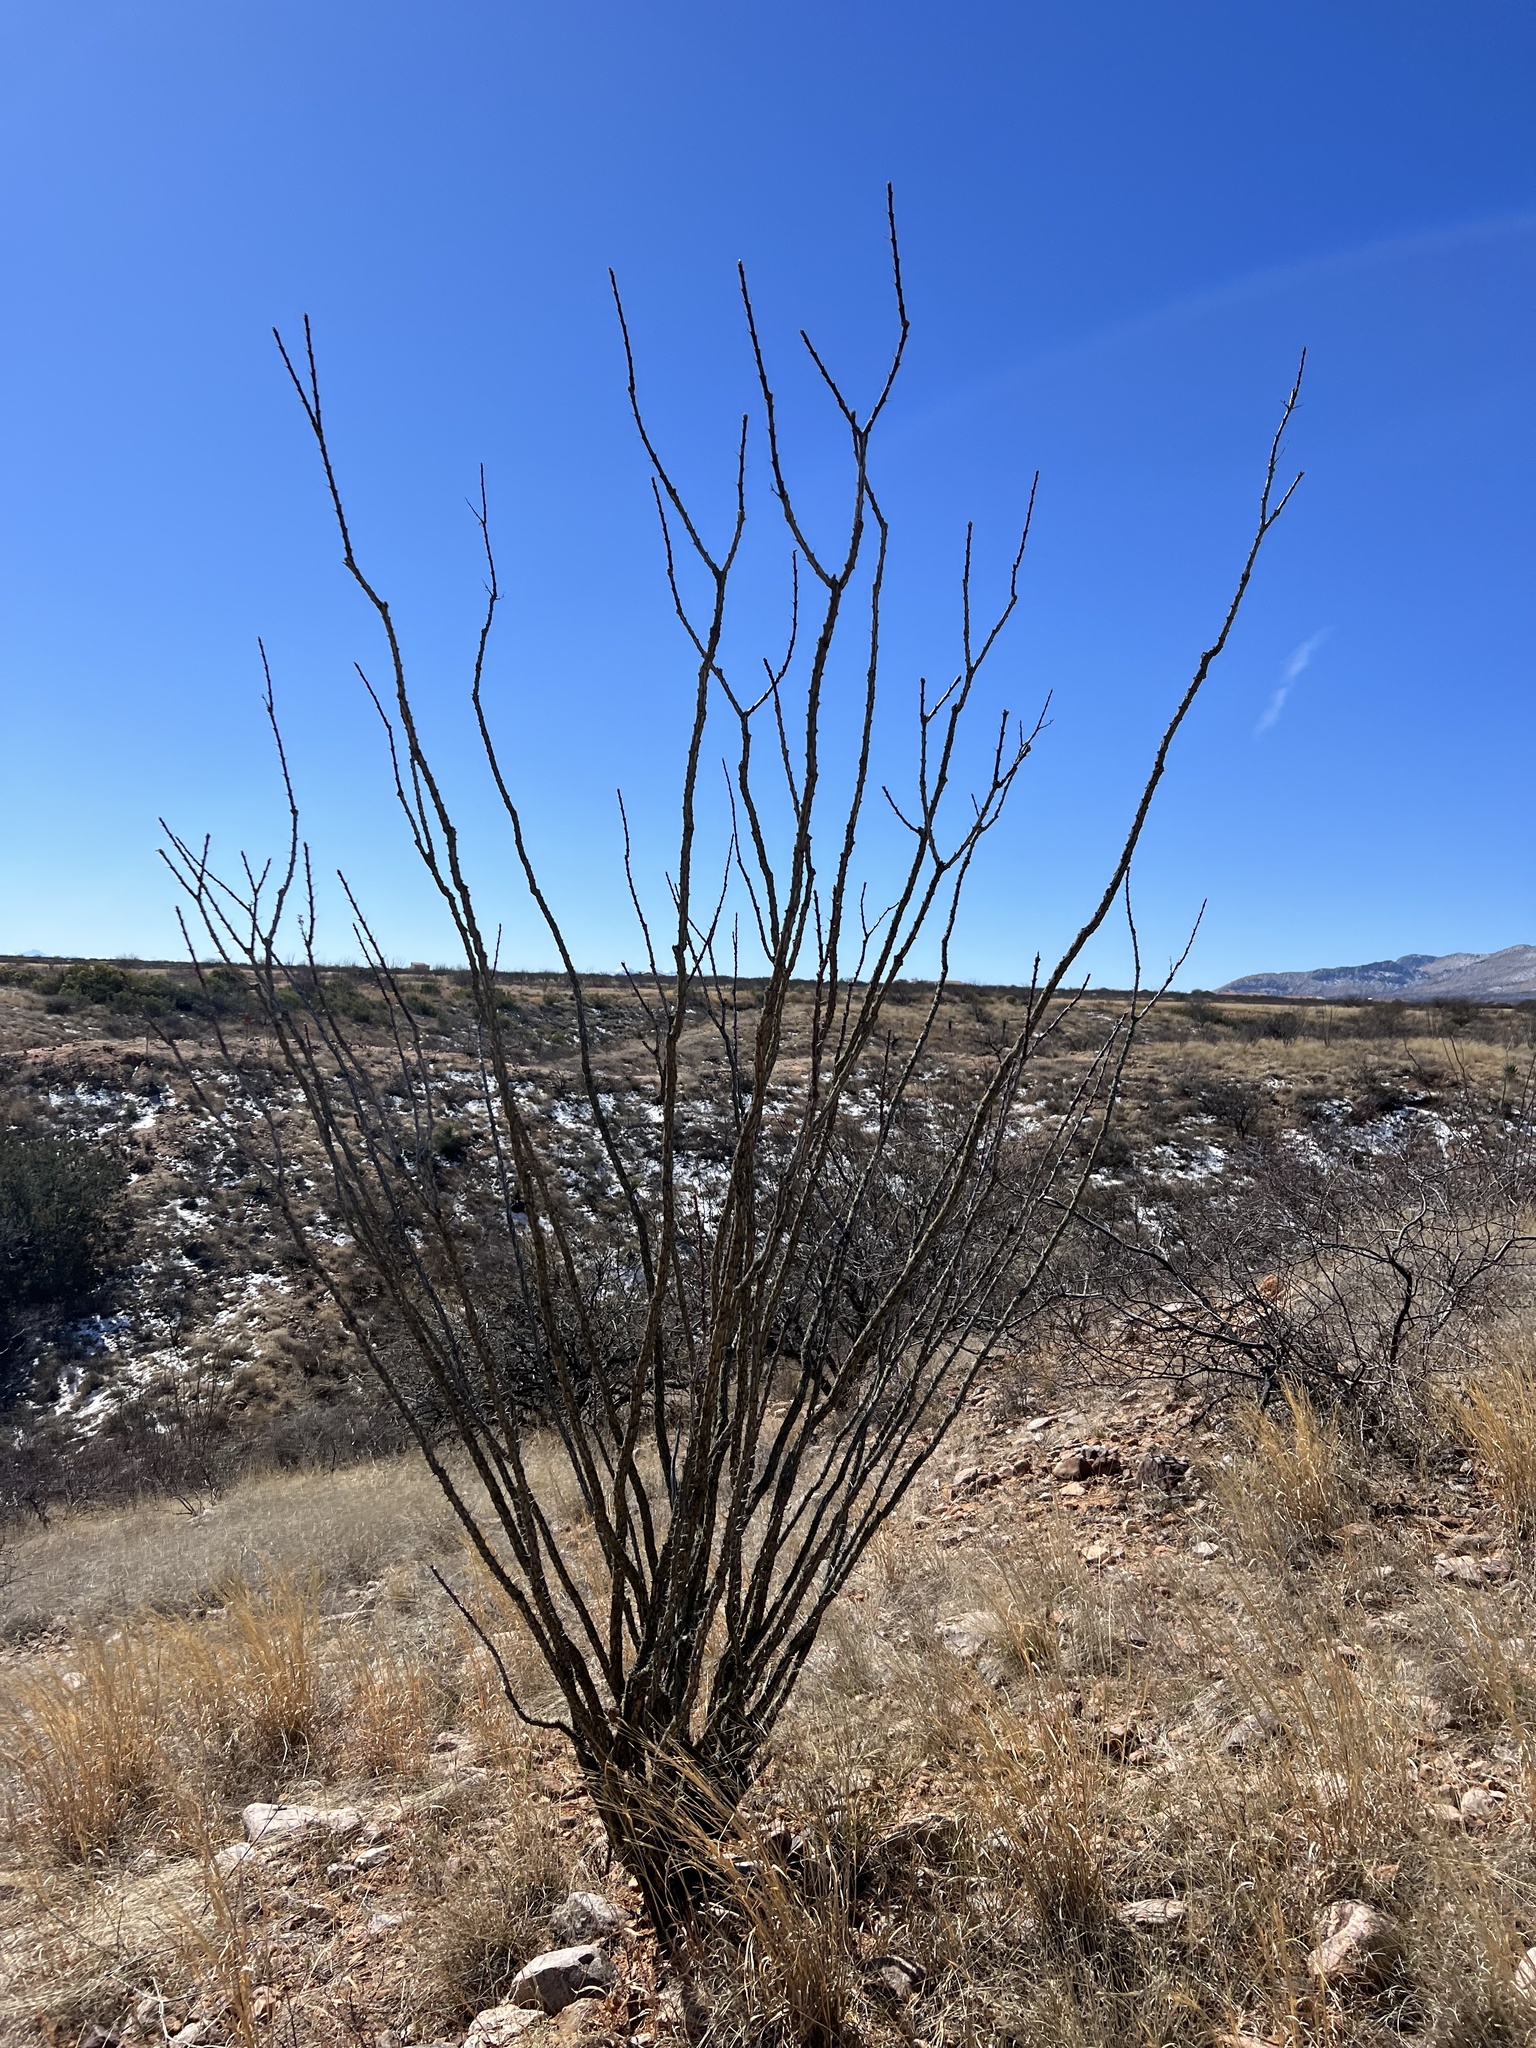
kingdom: Plantae
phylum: Tracheophyta
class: Magnoliopsida
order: Ericales
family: Fouquieriaceae
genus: Fouquieria
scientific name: Fouquieria splendens
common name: Vine-cactus
